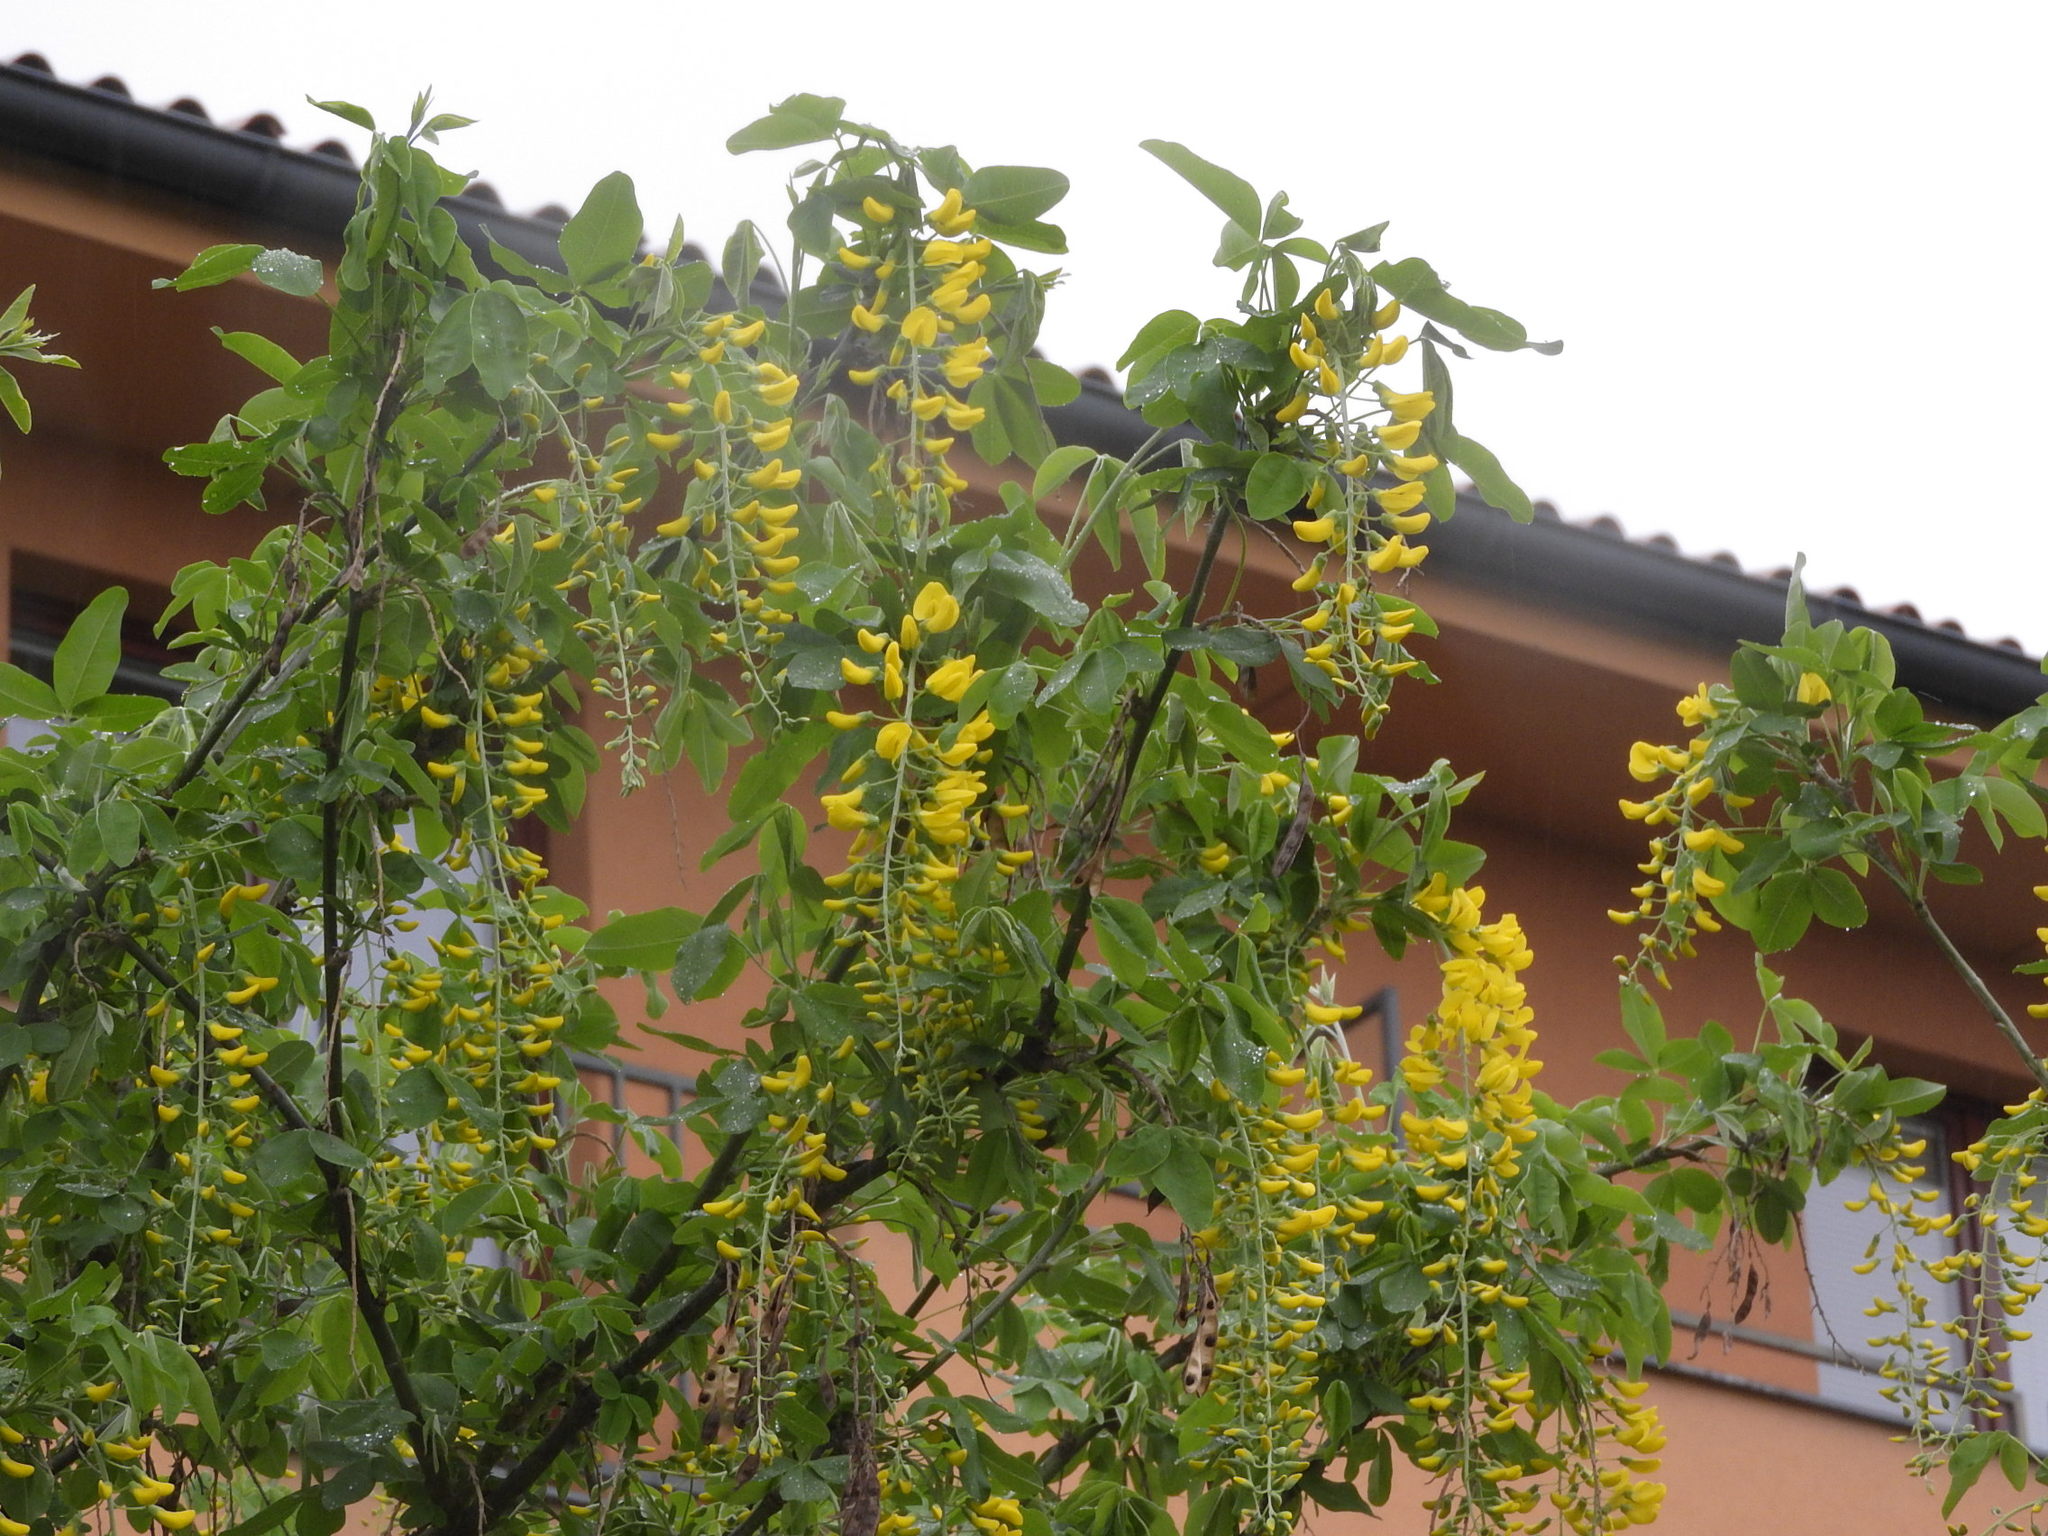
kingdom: Plantae
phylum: Tracheophyta
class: Magnoliopsida
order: Fabales
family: Fabaceae
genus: Laburnum
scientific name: Laburnum anagyroides
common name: Laburnum
